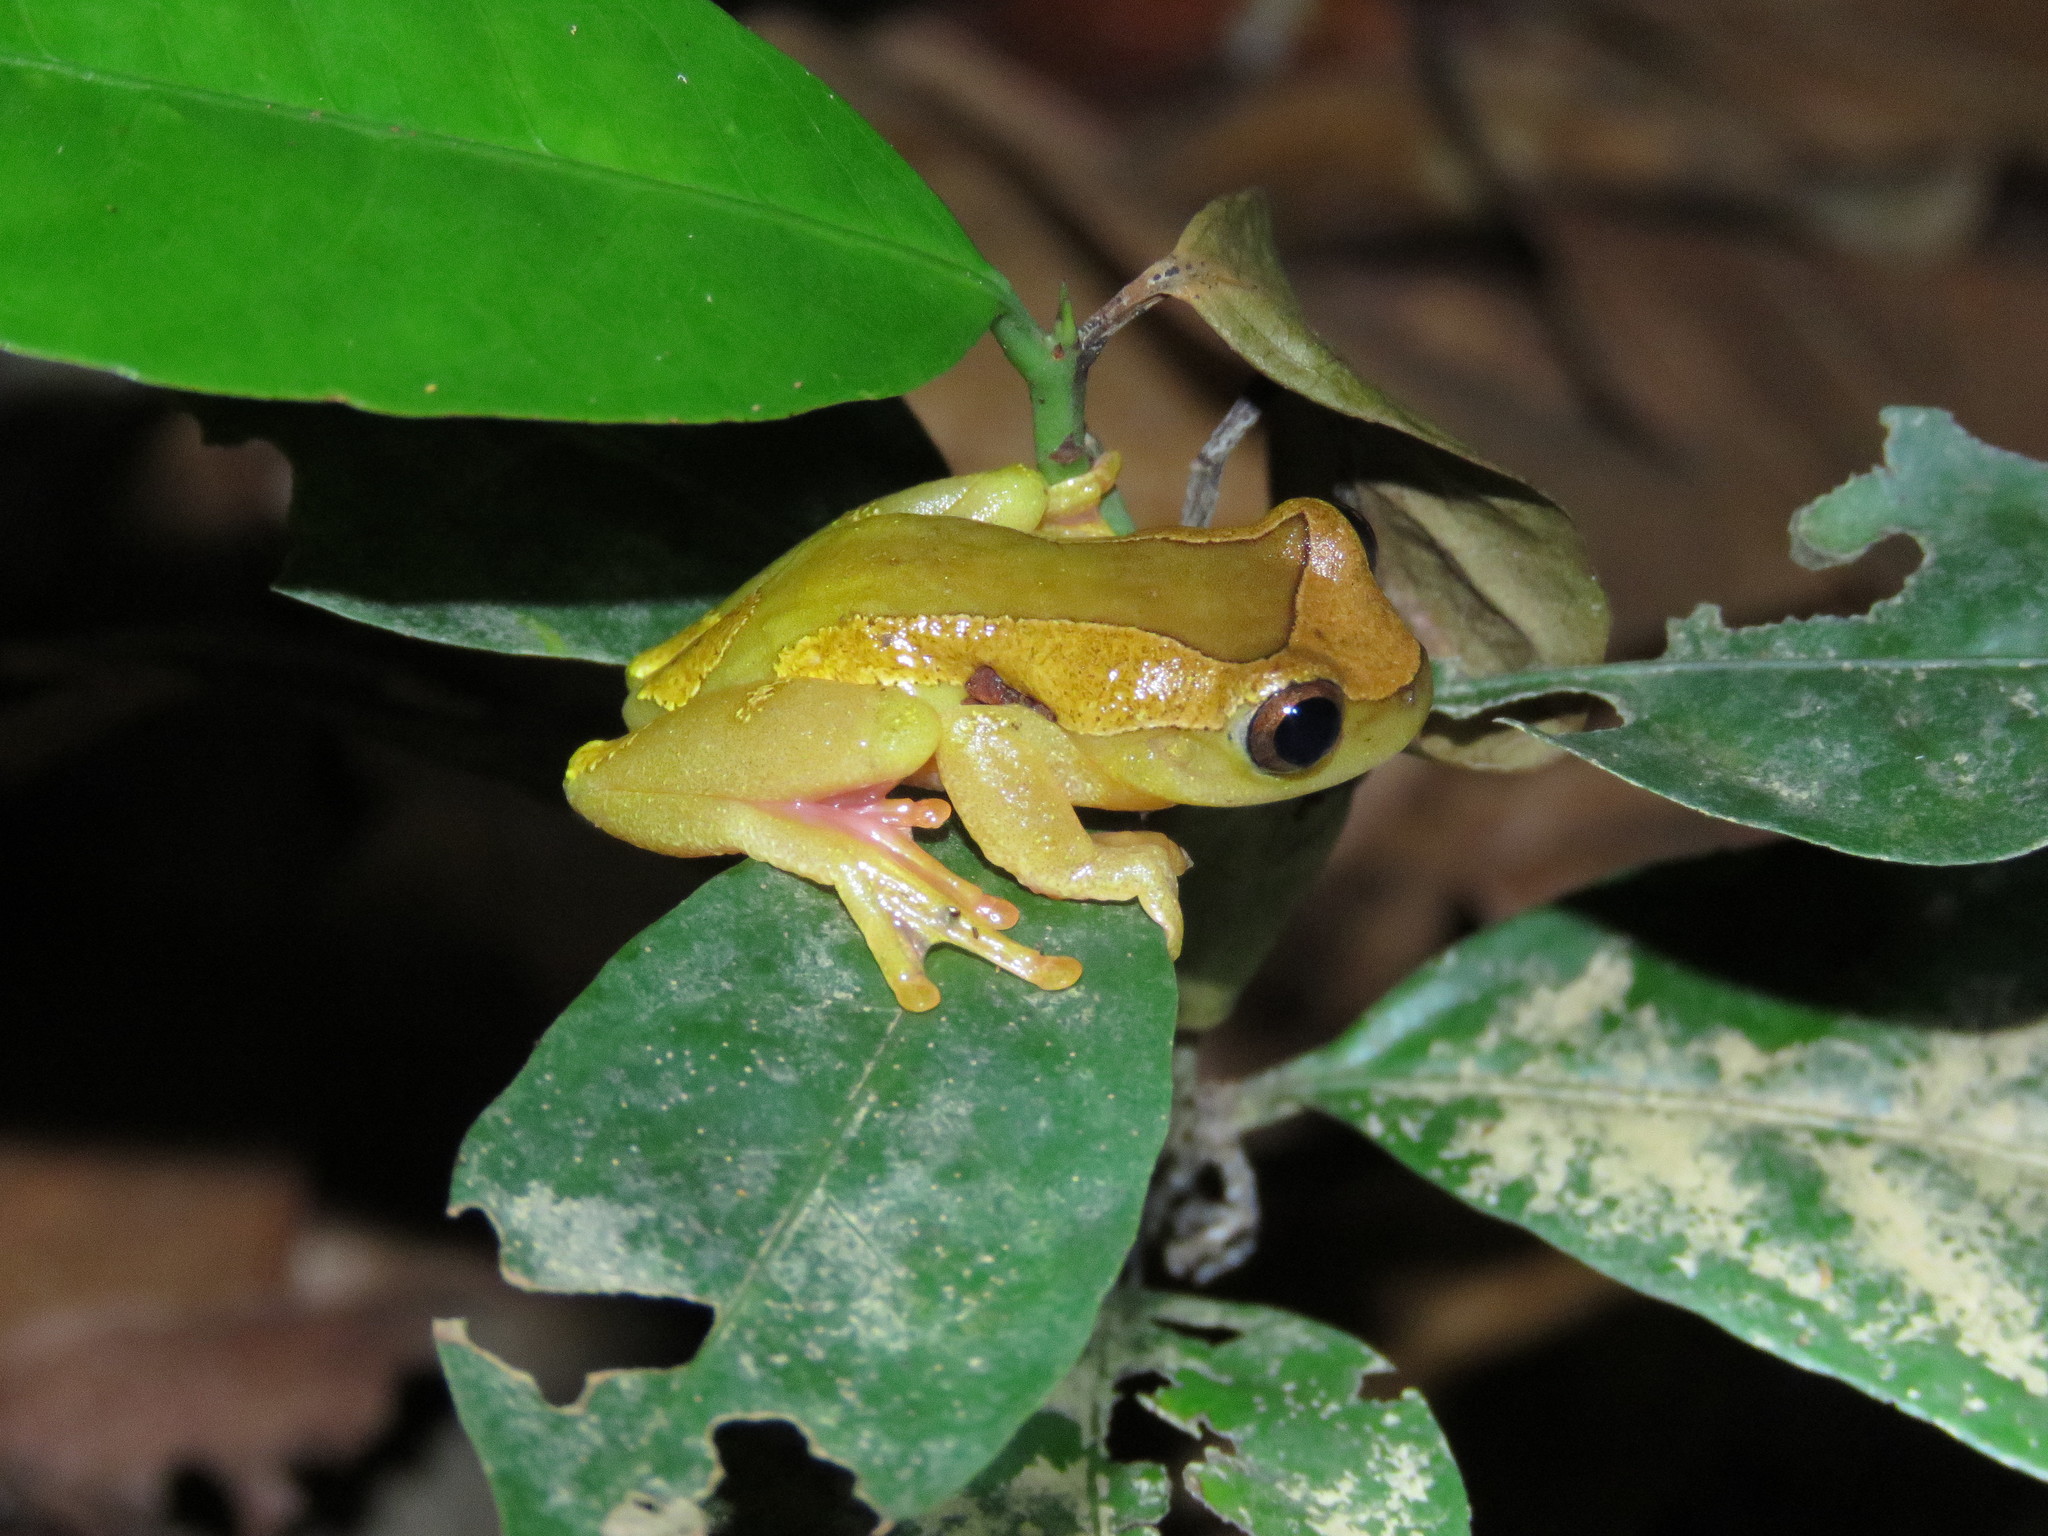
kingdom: Animalia
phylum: Chordata
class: Amphibia
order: Anura
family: Hylidae
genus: Dendropsophus
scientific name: Dendropsophus arndti
